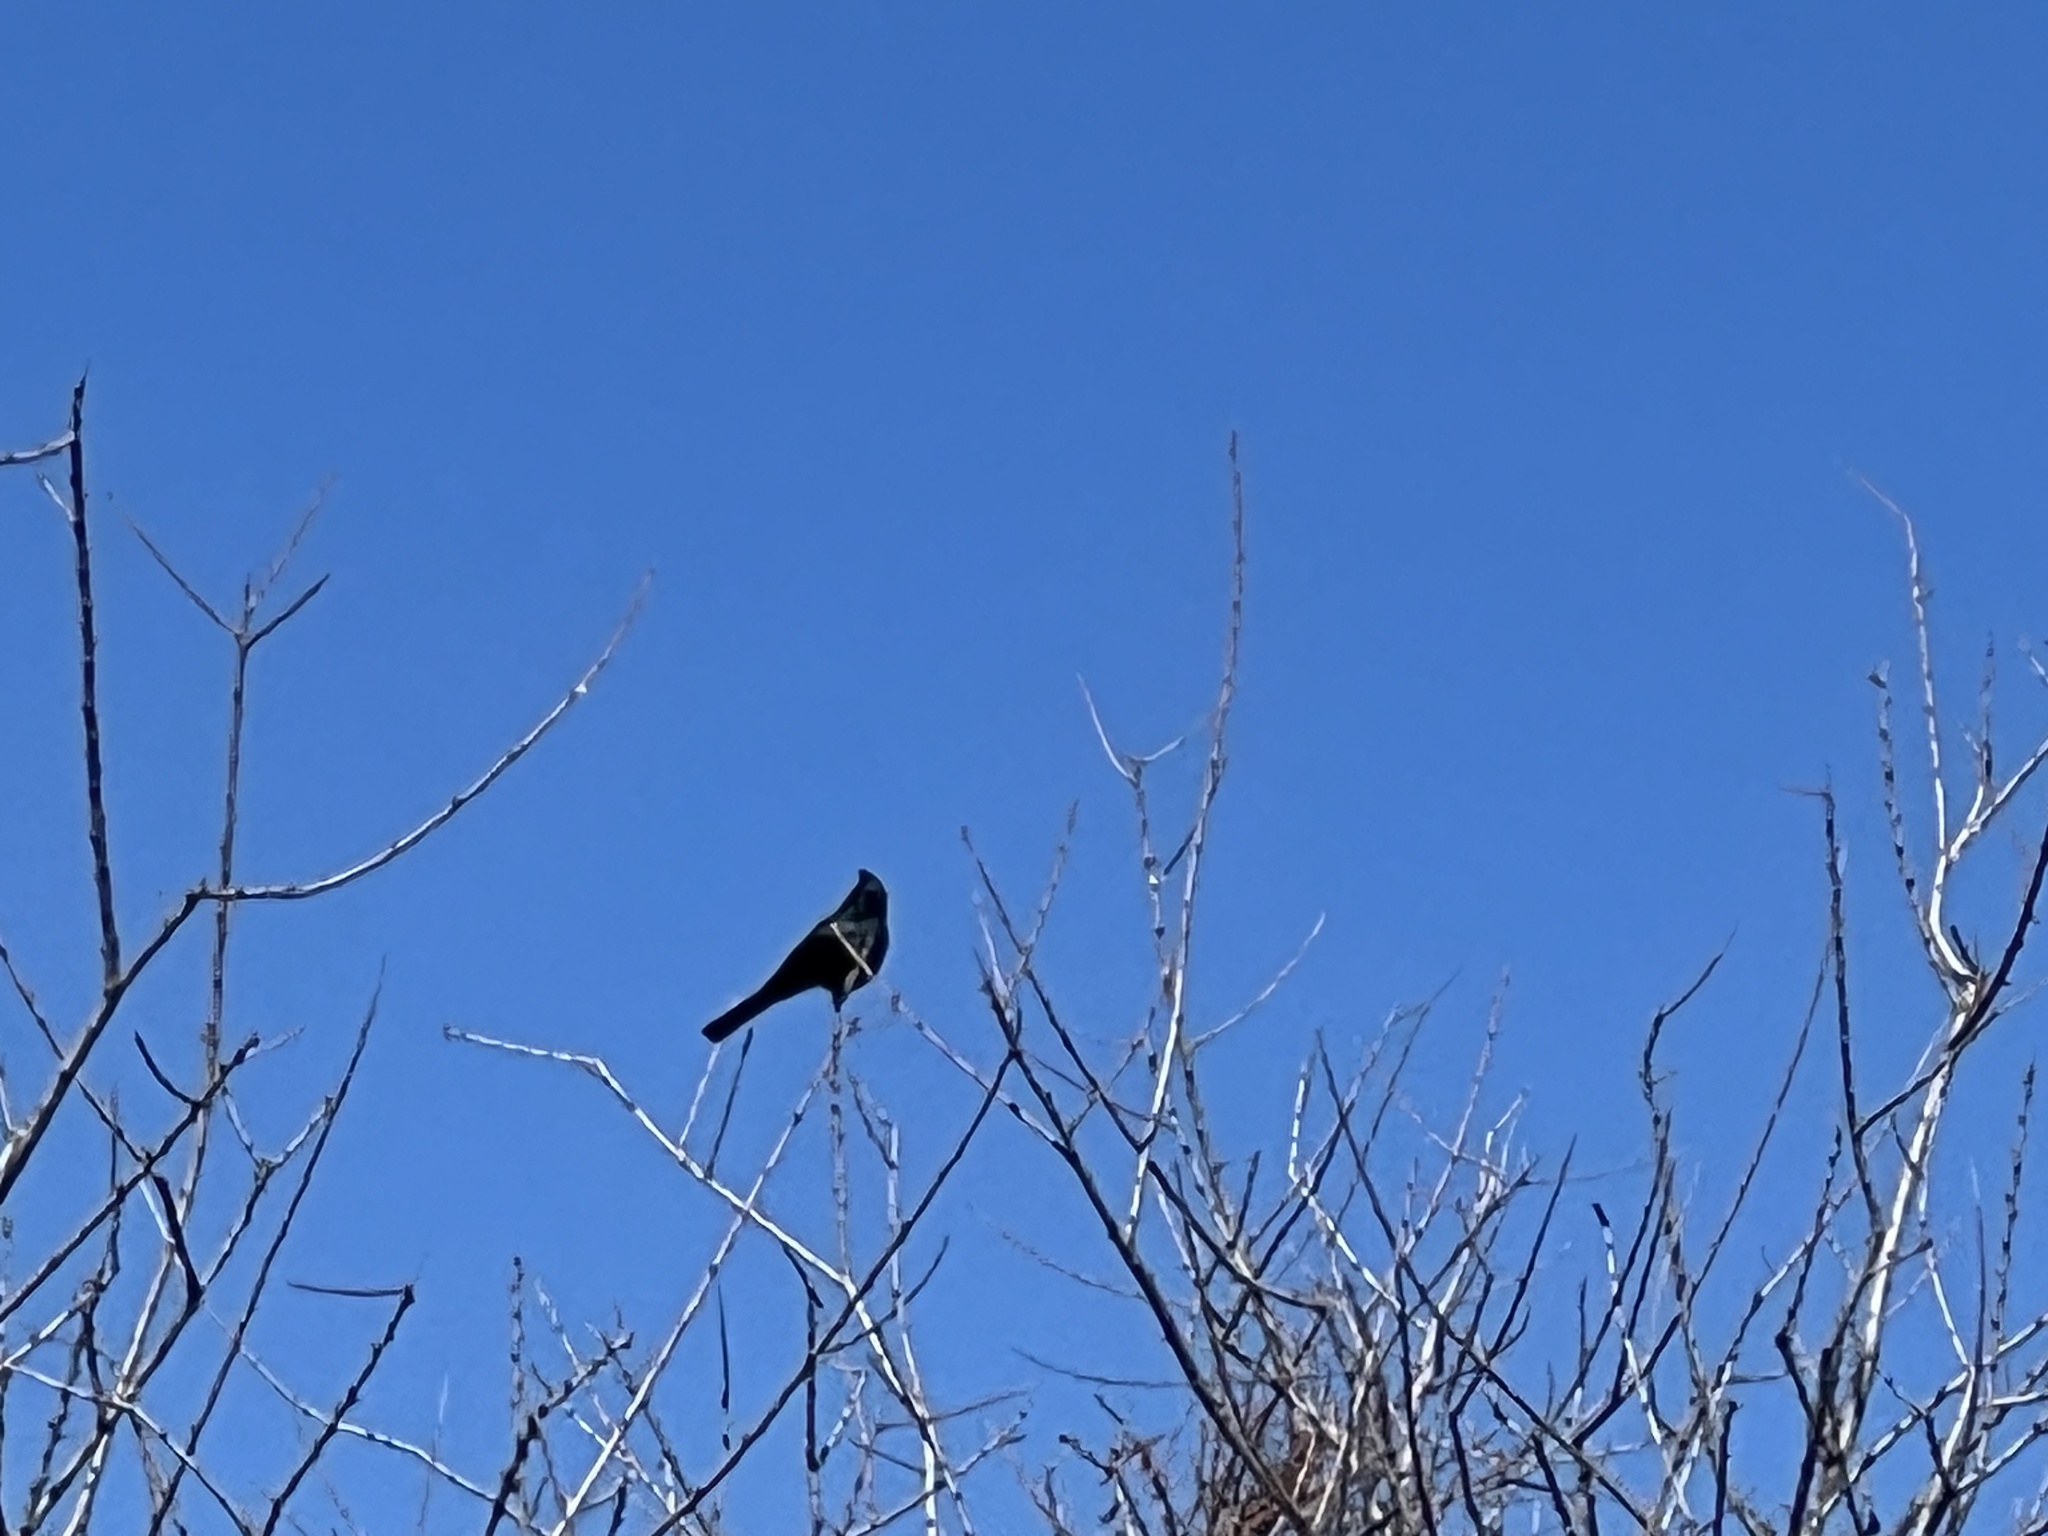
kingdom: Animalia
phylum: Chordata
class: Aves
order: Passeriformes
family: Ptilogonatidae
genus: Phainopepla
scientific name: Phainopepla nitens
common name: Phainopepla
